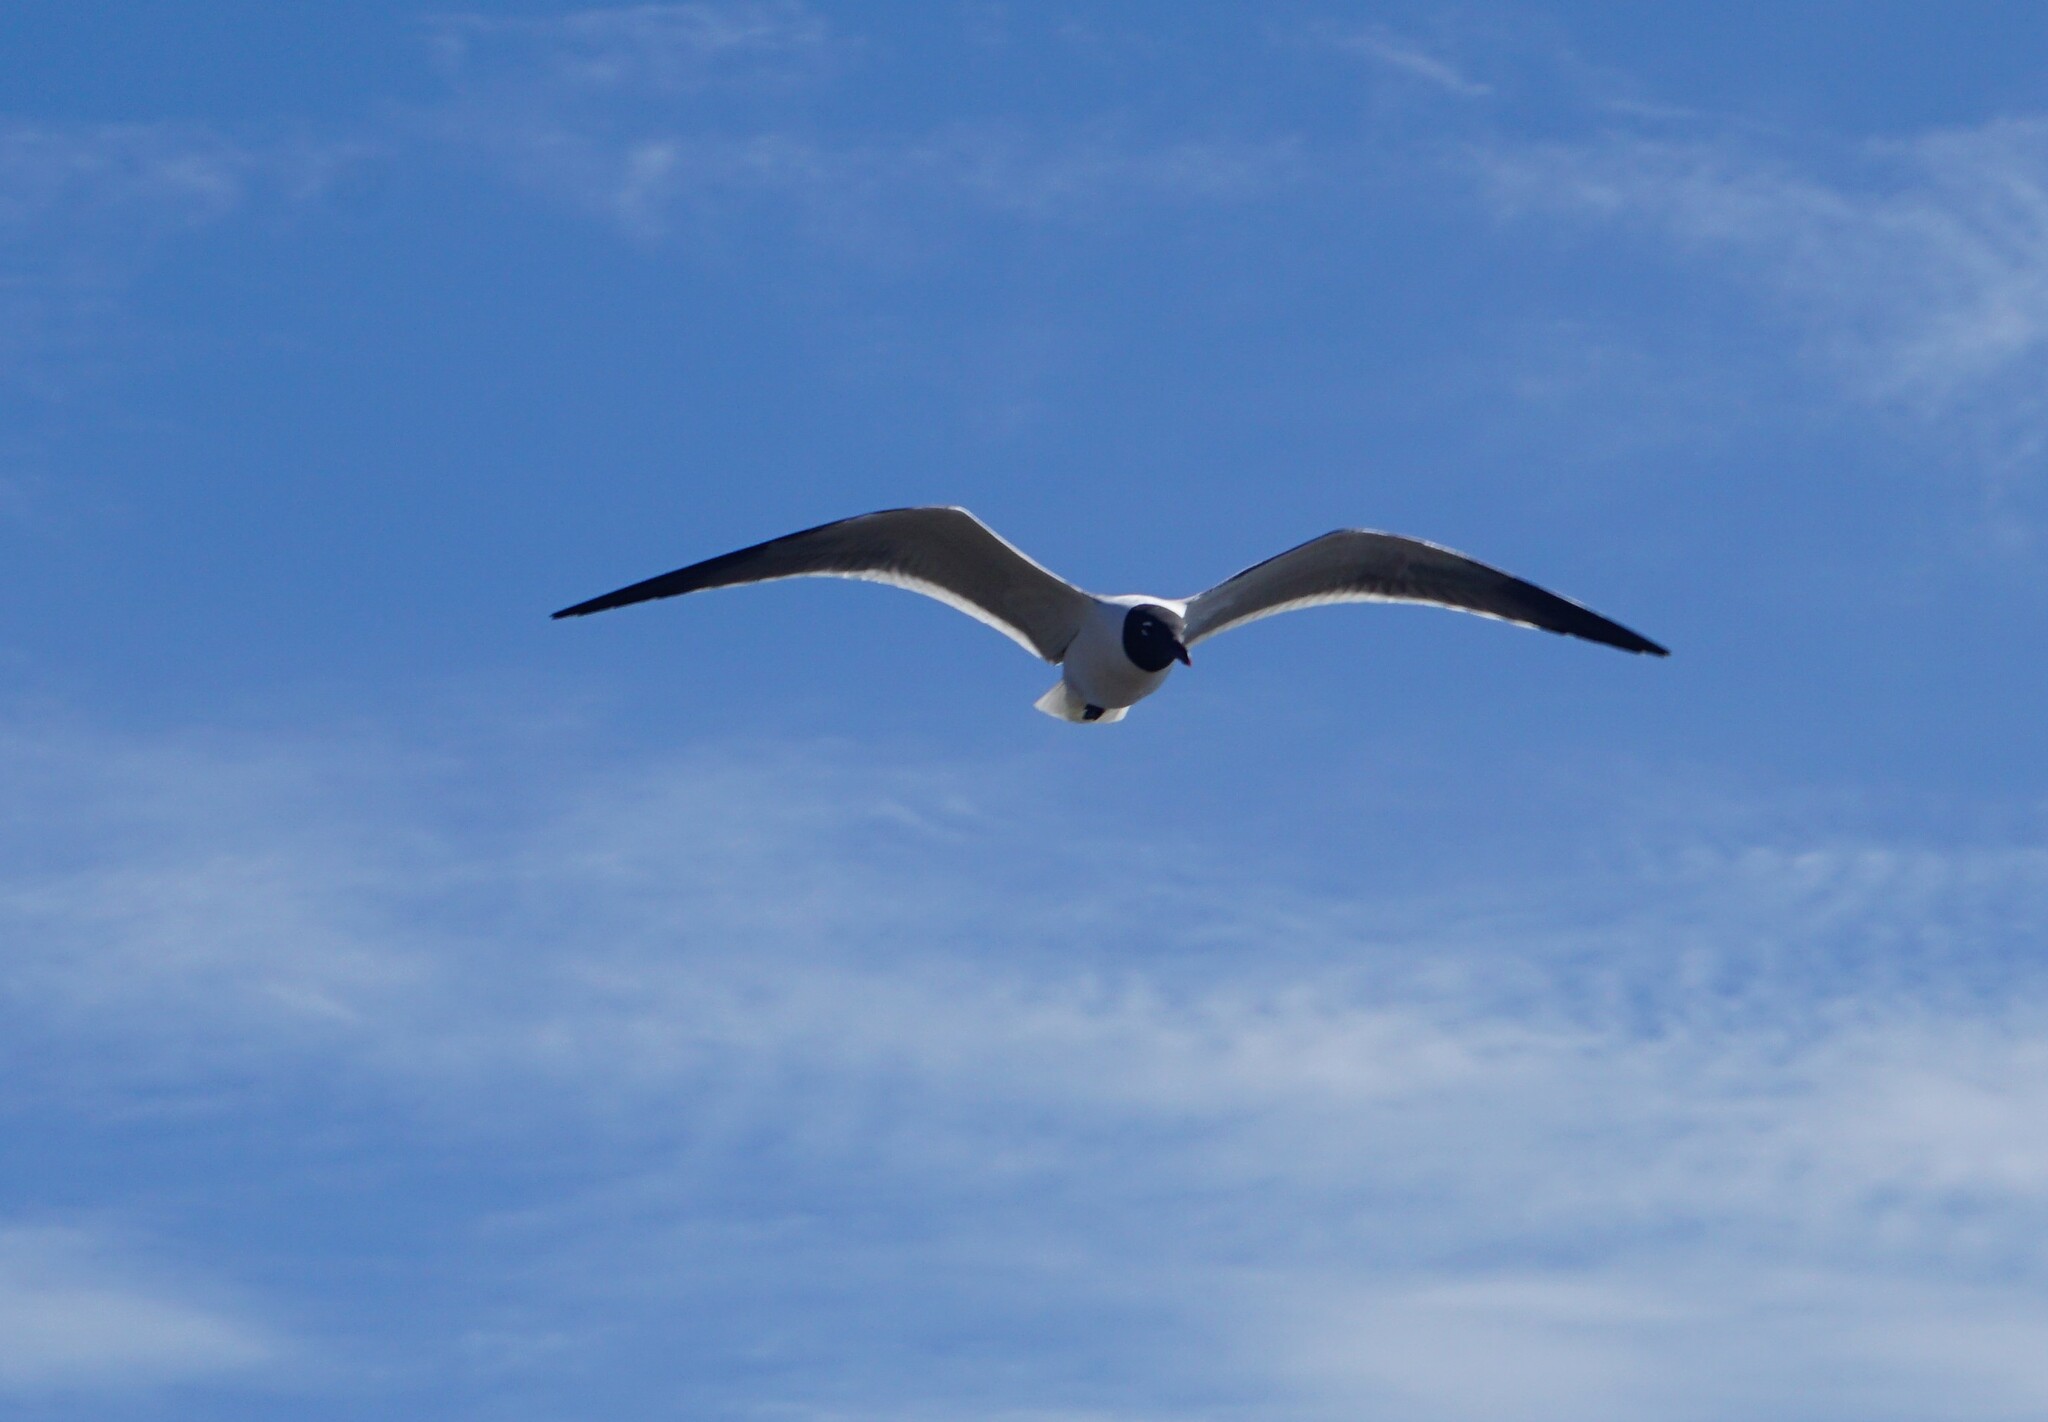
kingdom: Animalia
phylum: Chordata
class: Aves
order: Charadriiformes
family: Laridae
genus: Leucophaeus
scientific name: Leucophaeus atricilla
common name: Laughing gull
